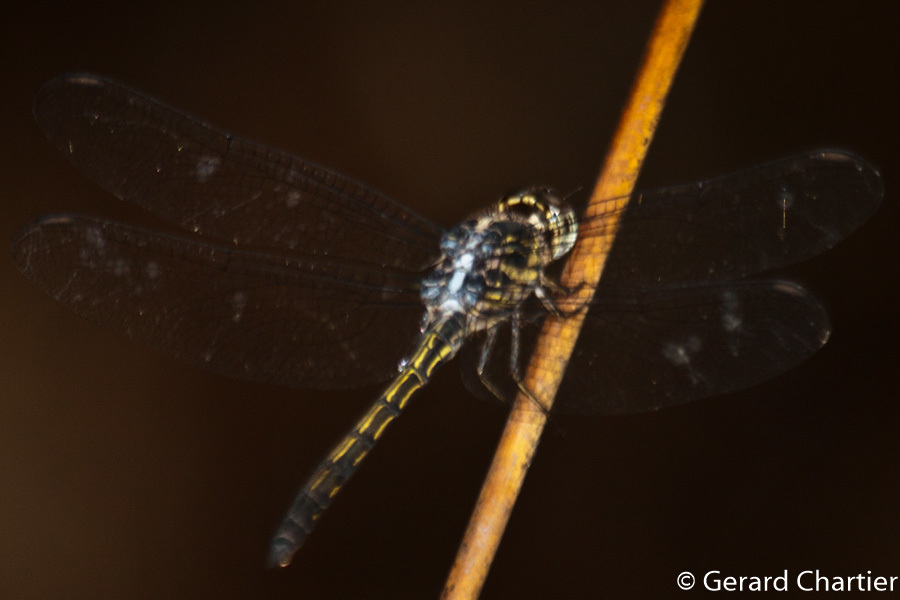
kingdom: Animalia
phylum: Arthropoda
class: Insecta
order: Odonata
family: Libellulidae
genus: Cratilla
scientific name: Cratilla lineata
